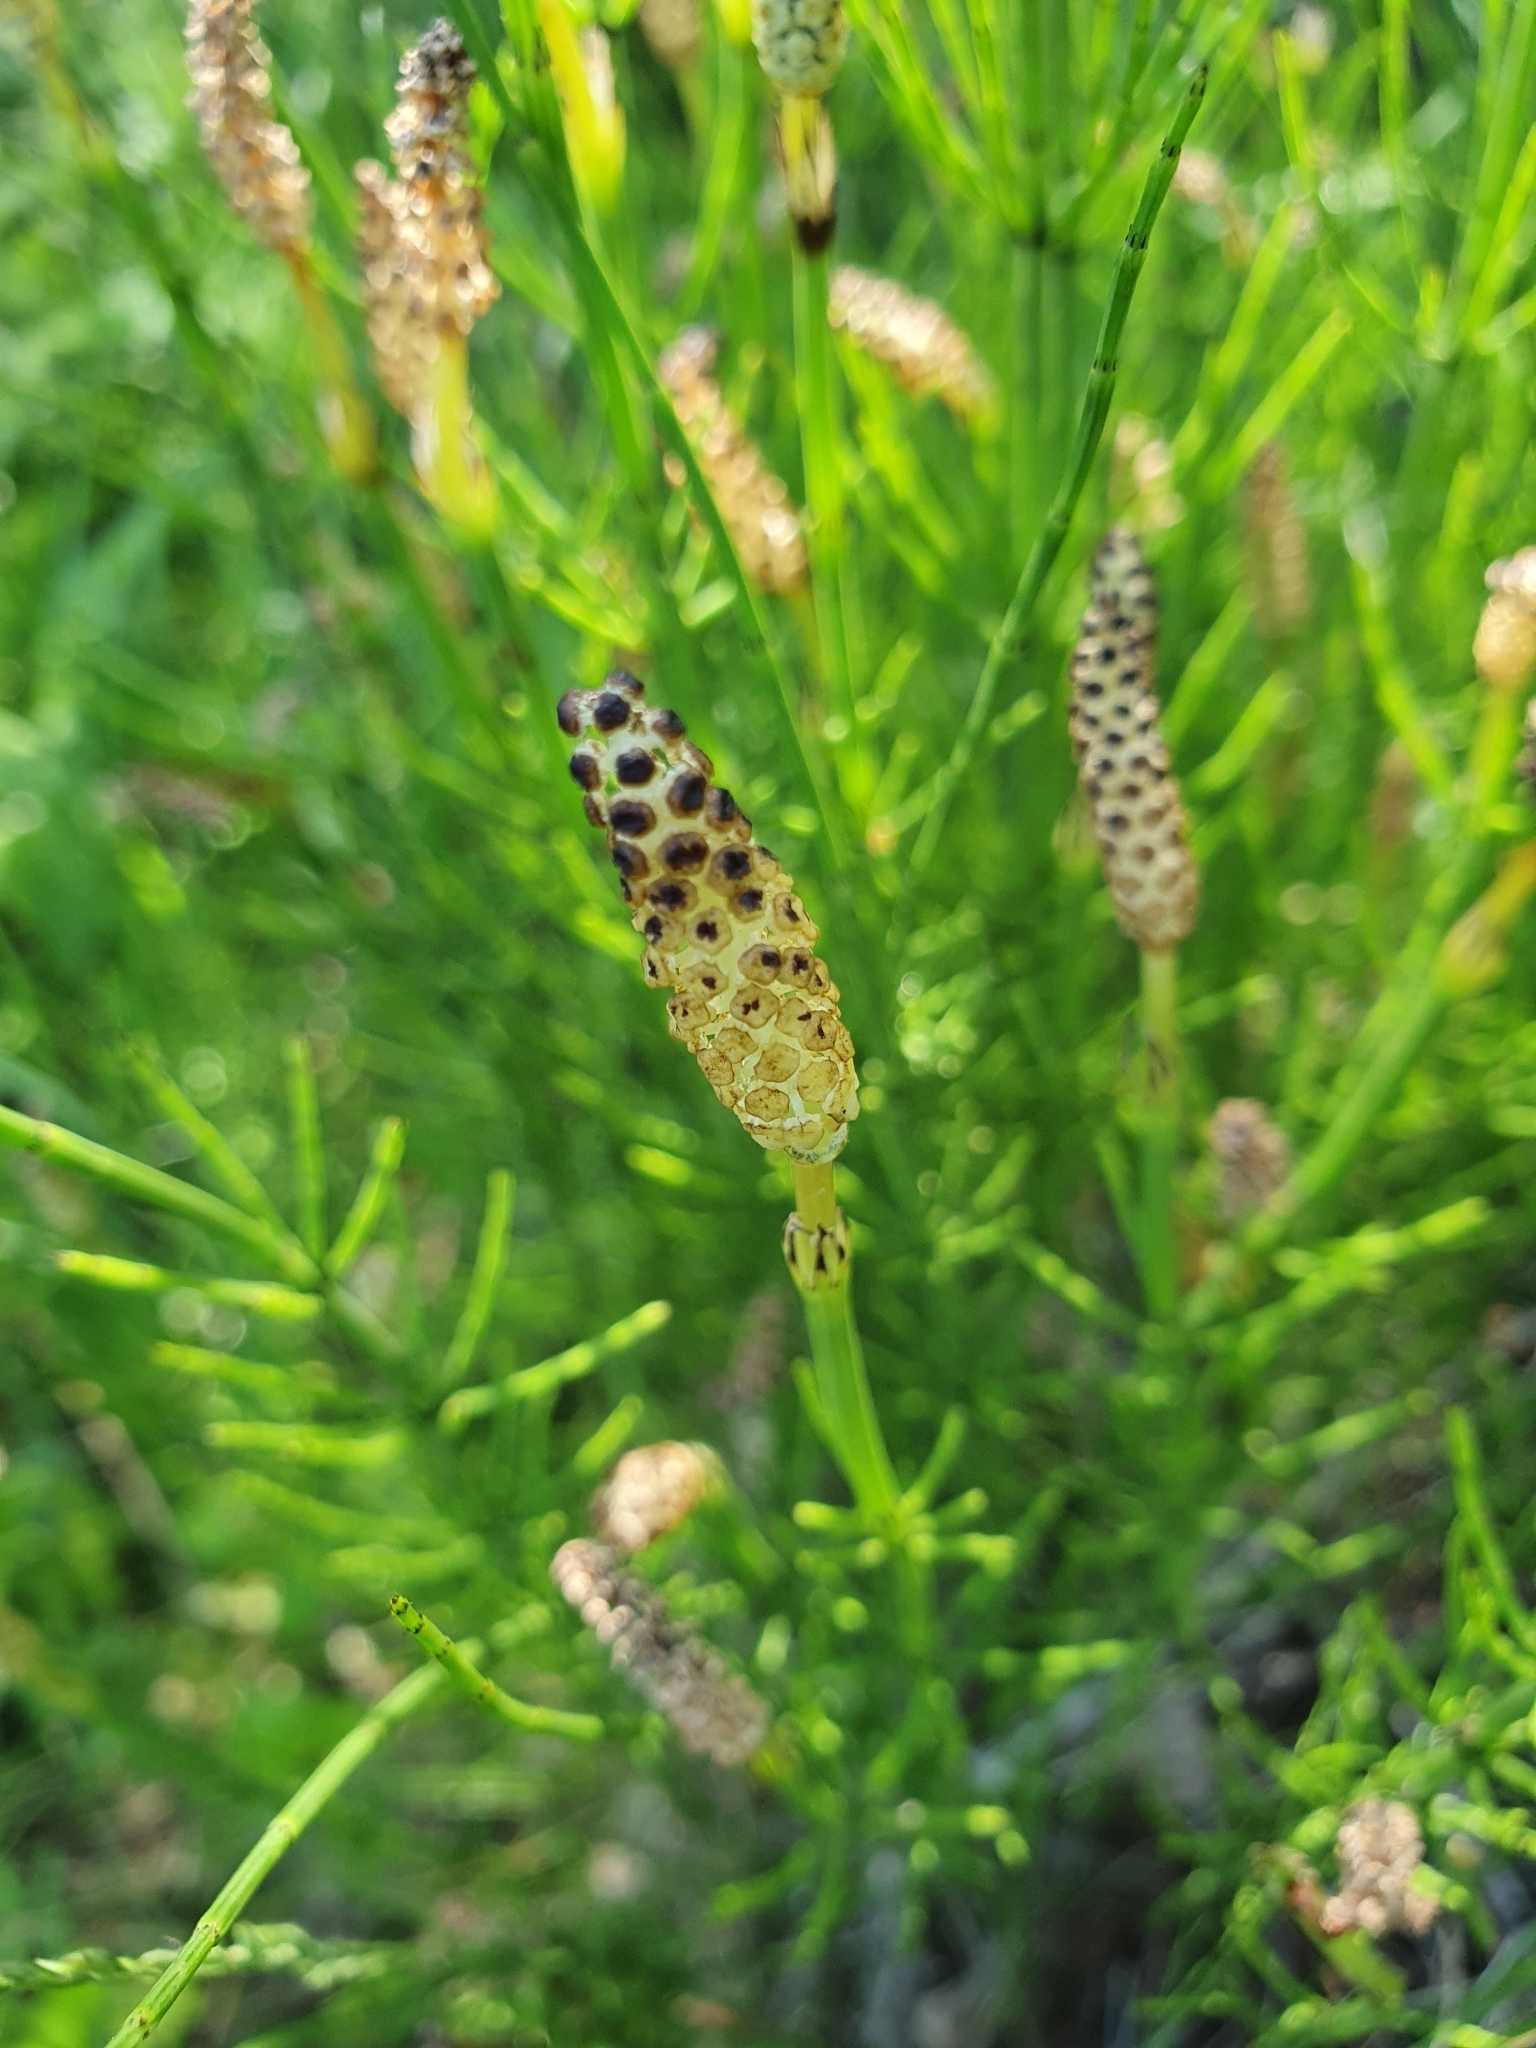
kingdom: Plantae
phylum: Tracheophyta
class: Polypodiopsida
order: Equisetales
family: Equisetaceae
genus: Equisetum
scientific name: Equisetum palustre
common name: Marsh horsetail
